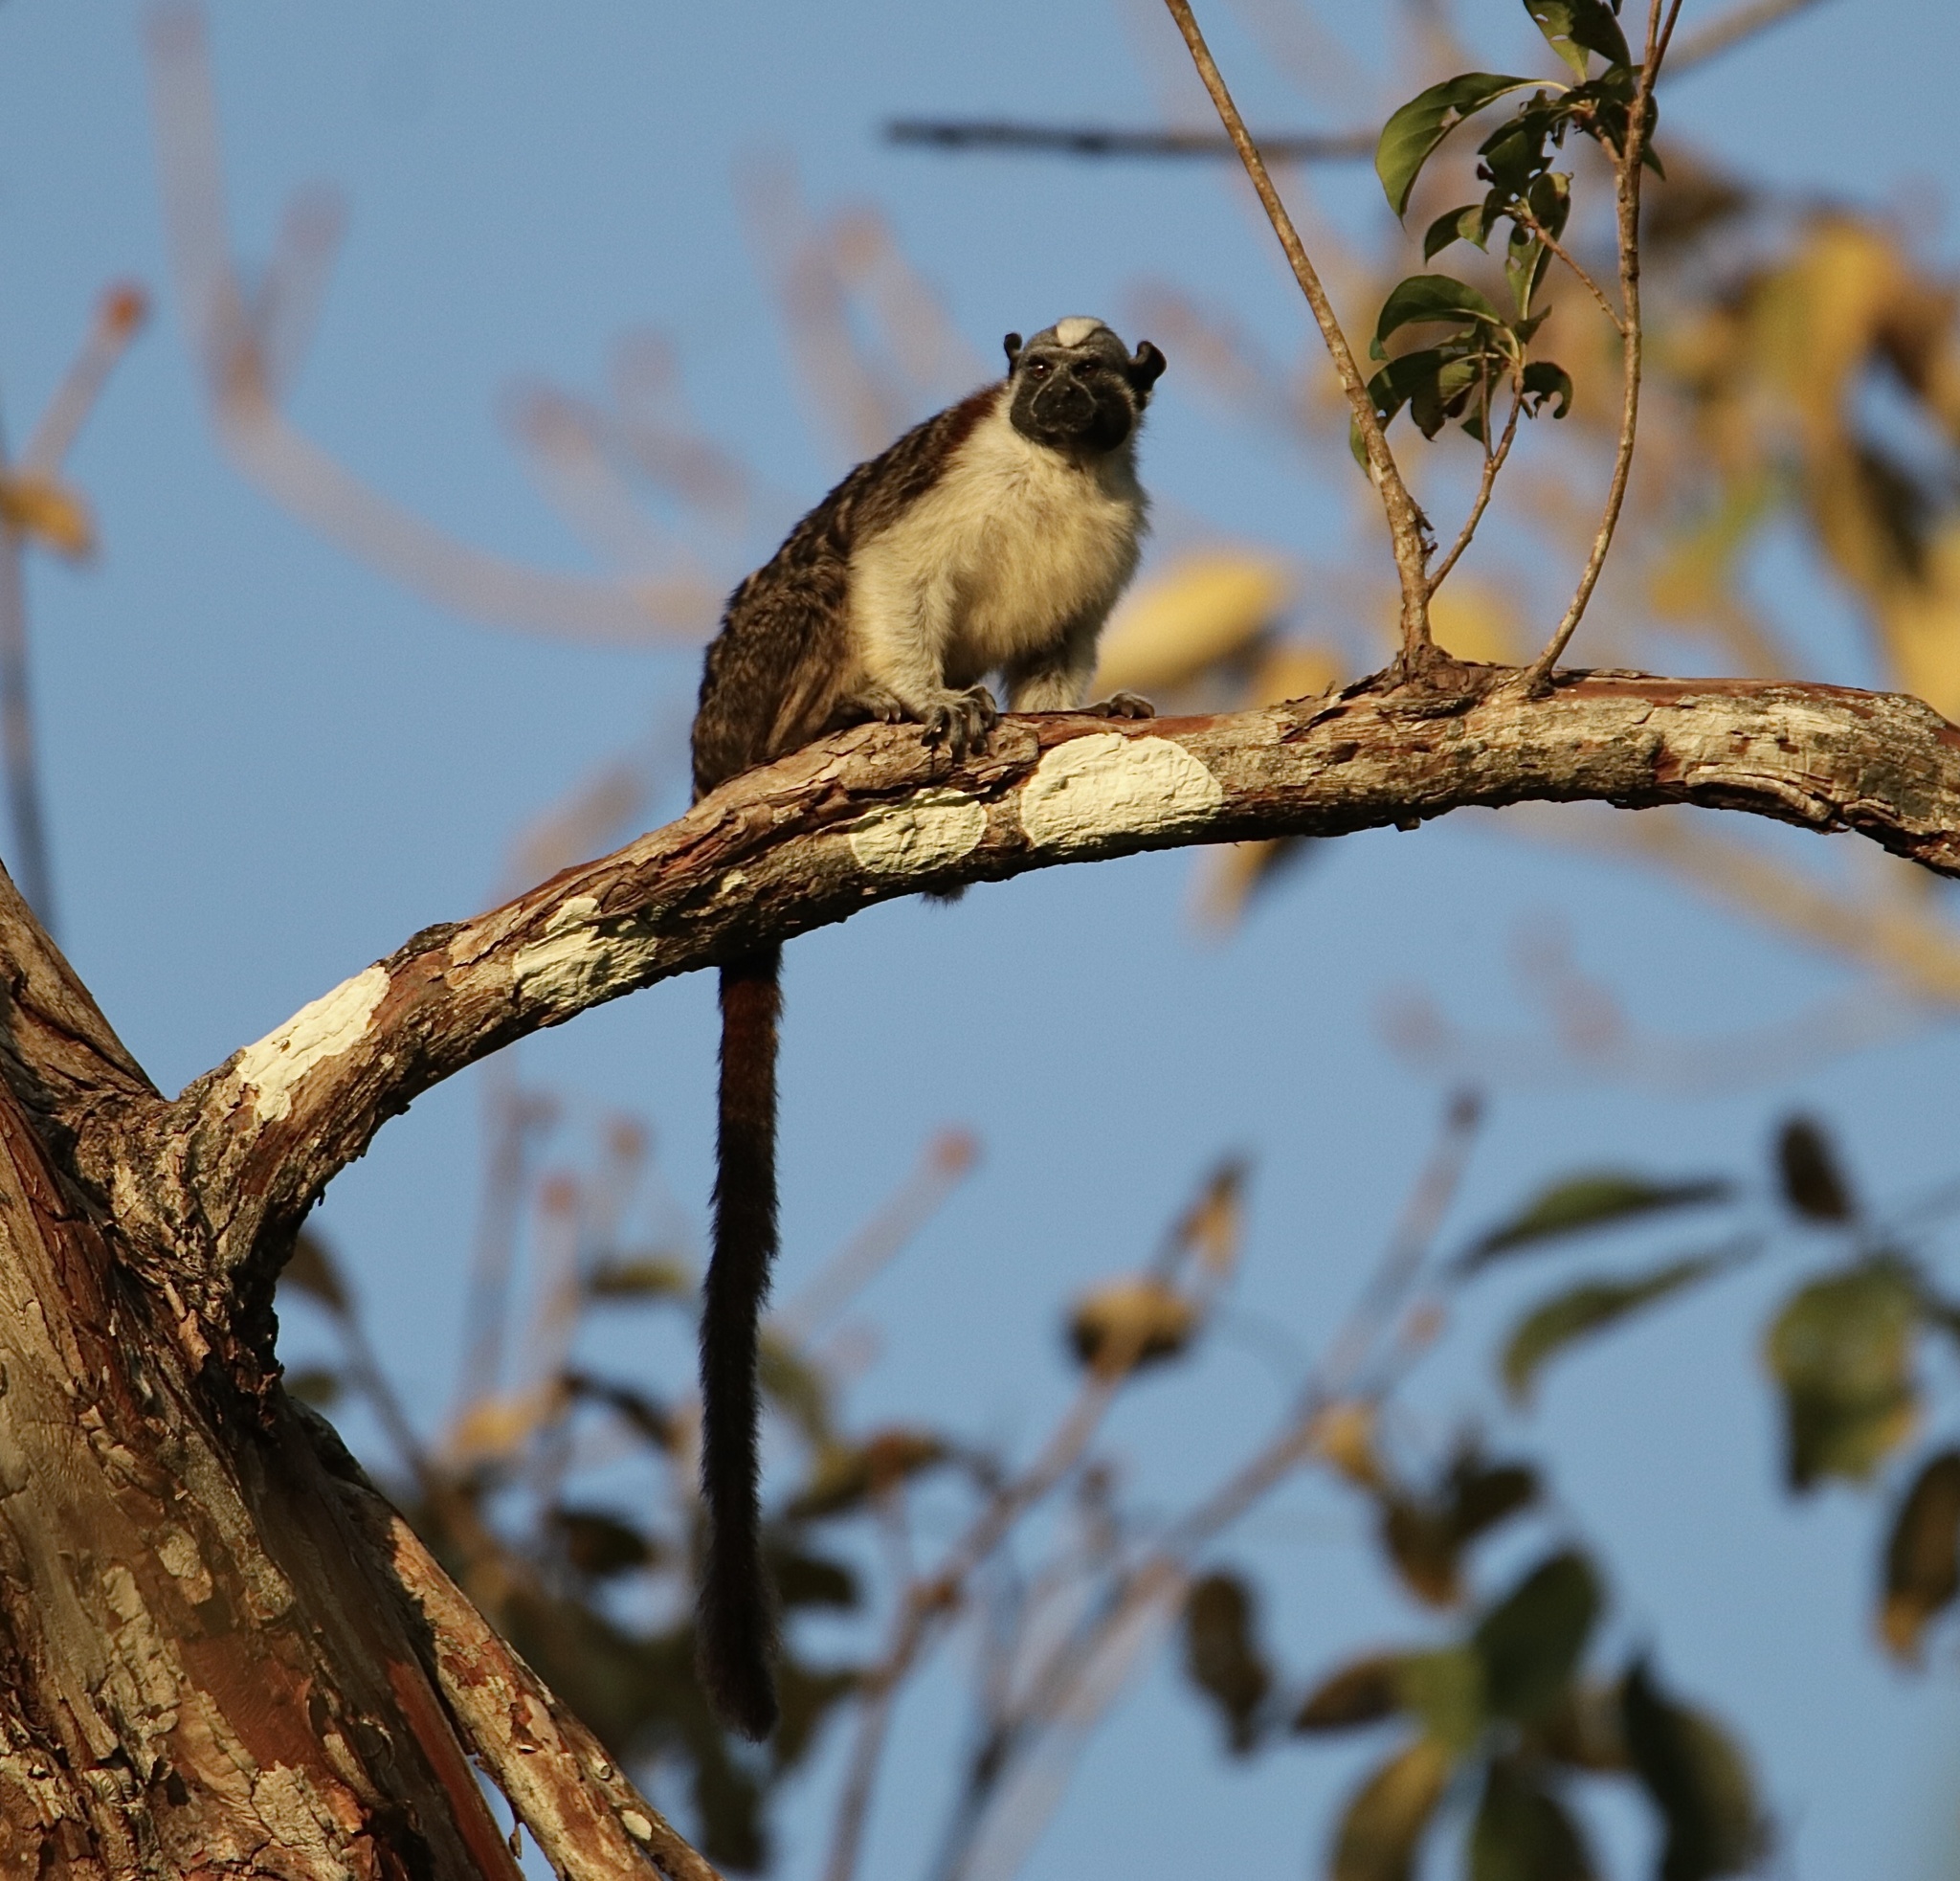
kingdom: Animalia
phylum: Chordata
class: Mammalia
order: Primates
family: Callitrichidae
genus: Saguinus
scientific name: Saguinus geoffroyi
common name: Geoffroy s tamarin
